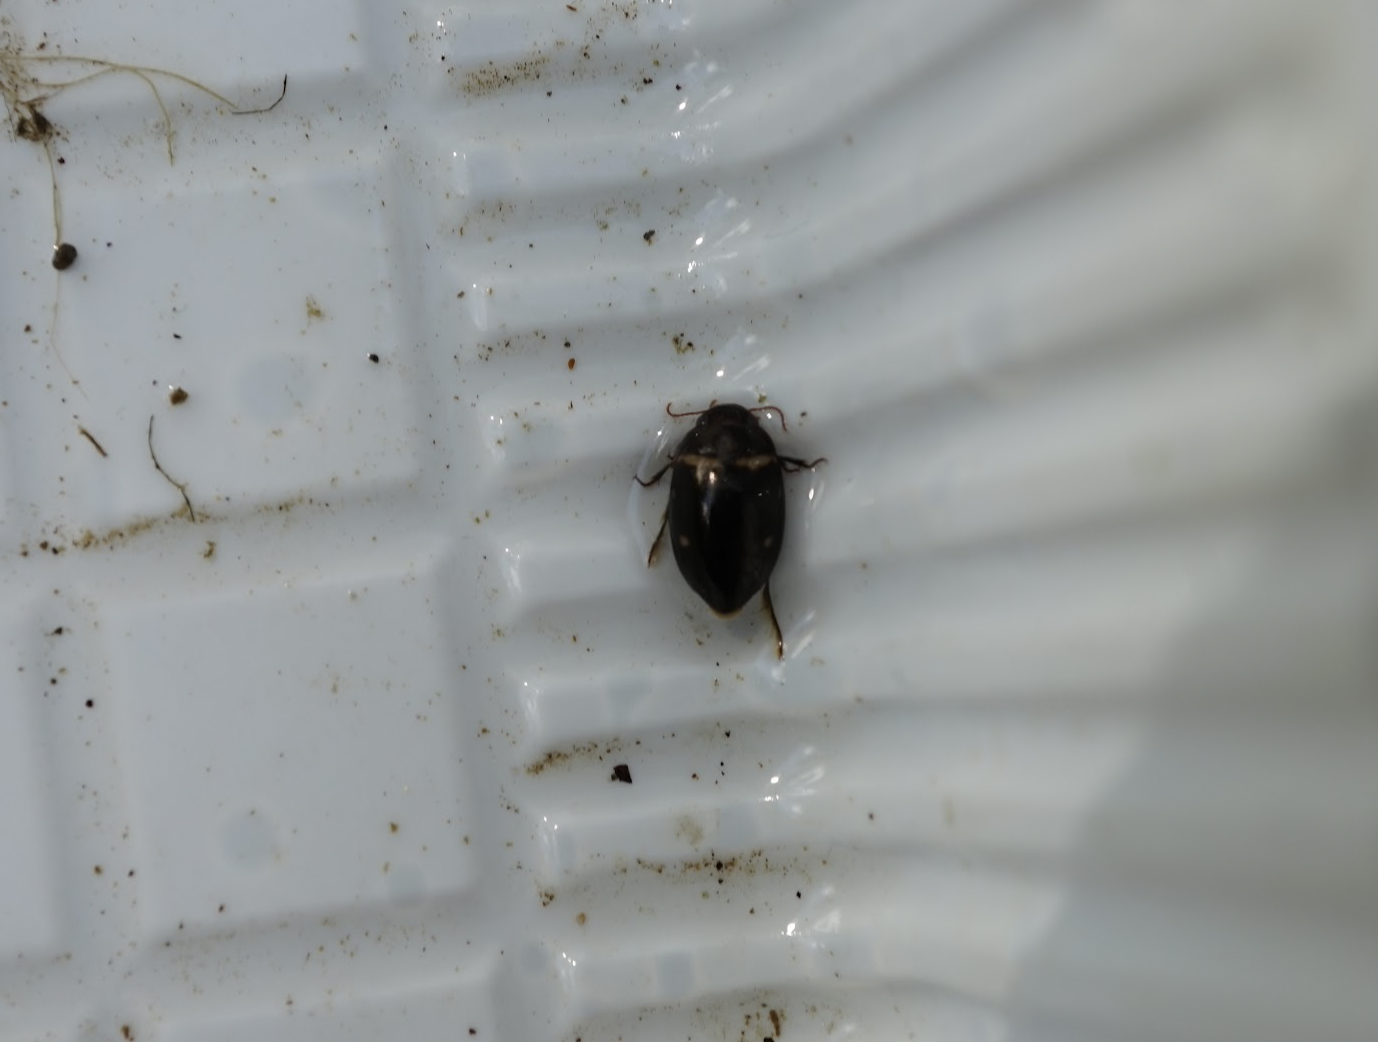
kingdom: Animalia
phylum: Arthropoda
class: Insecta
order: Coleoptera
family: Dytiscidae
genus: Platambus
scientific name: Platambus pictipennis
